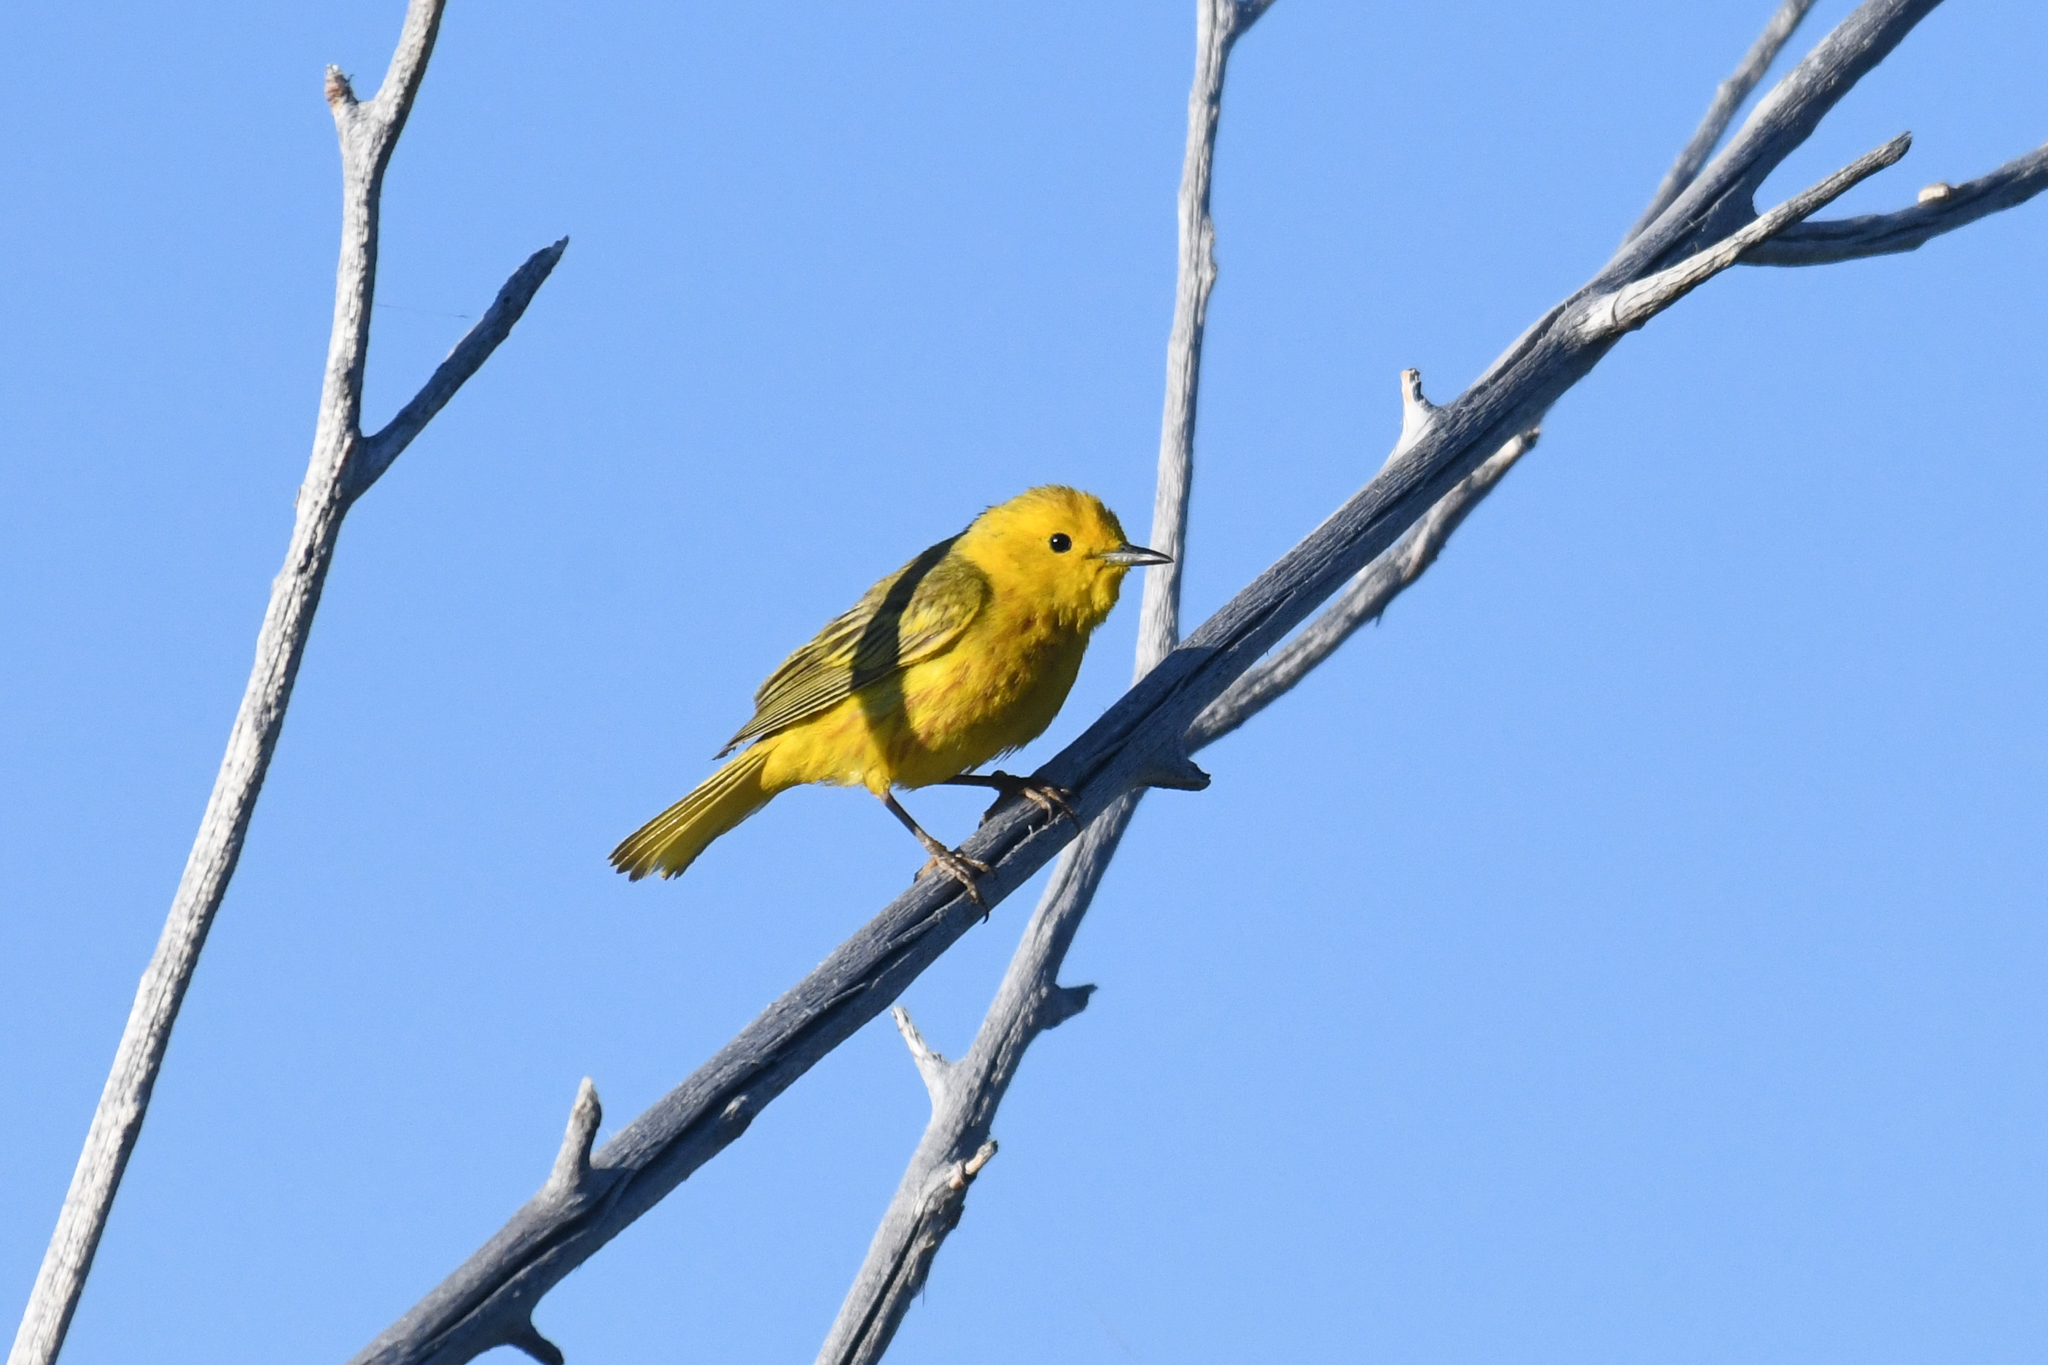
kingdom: Animalia
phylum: Chordata
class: Aves
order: Passeriformes
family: Parulidae
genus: Setophaga
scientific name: Setophaga petechia
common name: Yellow warbler
